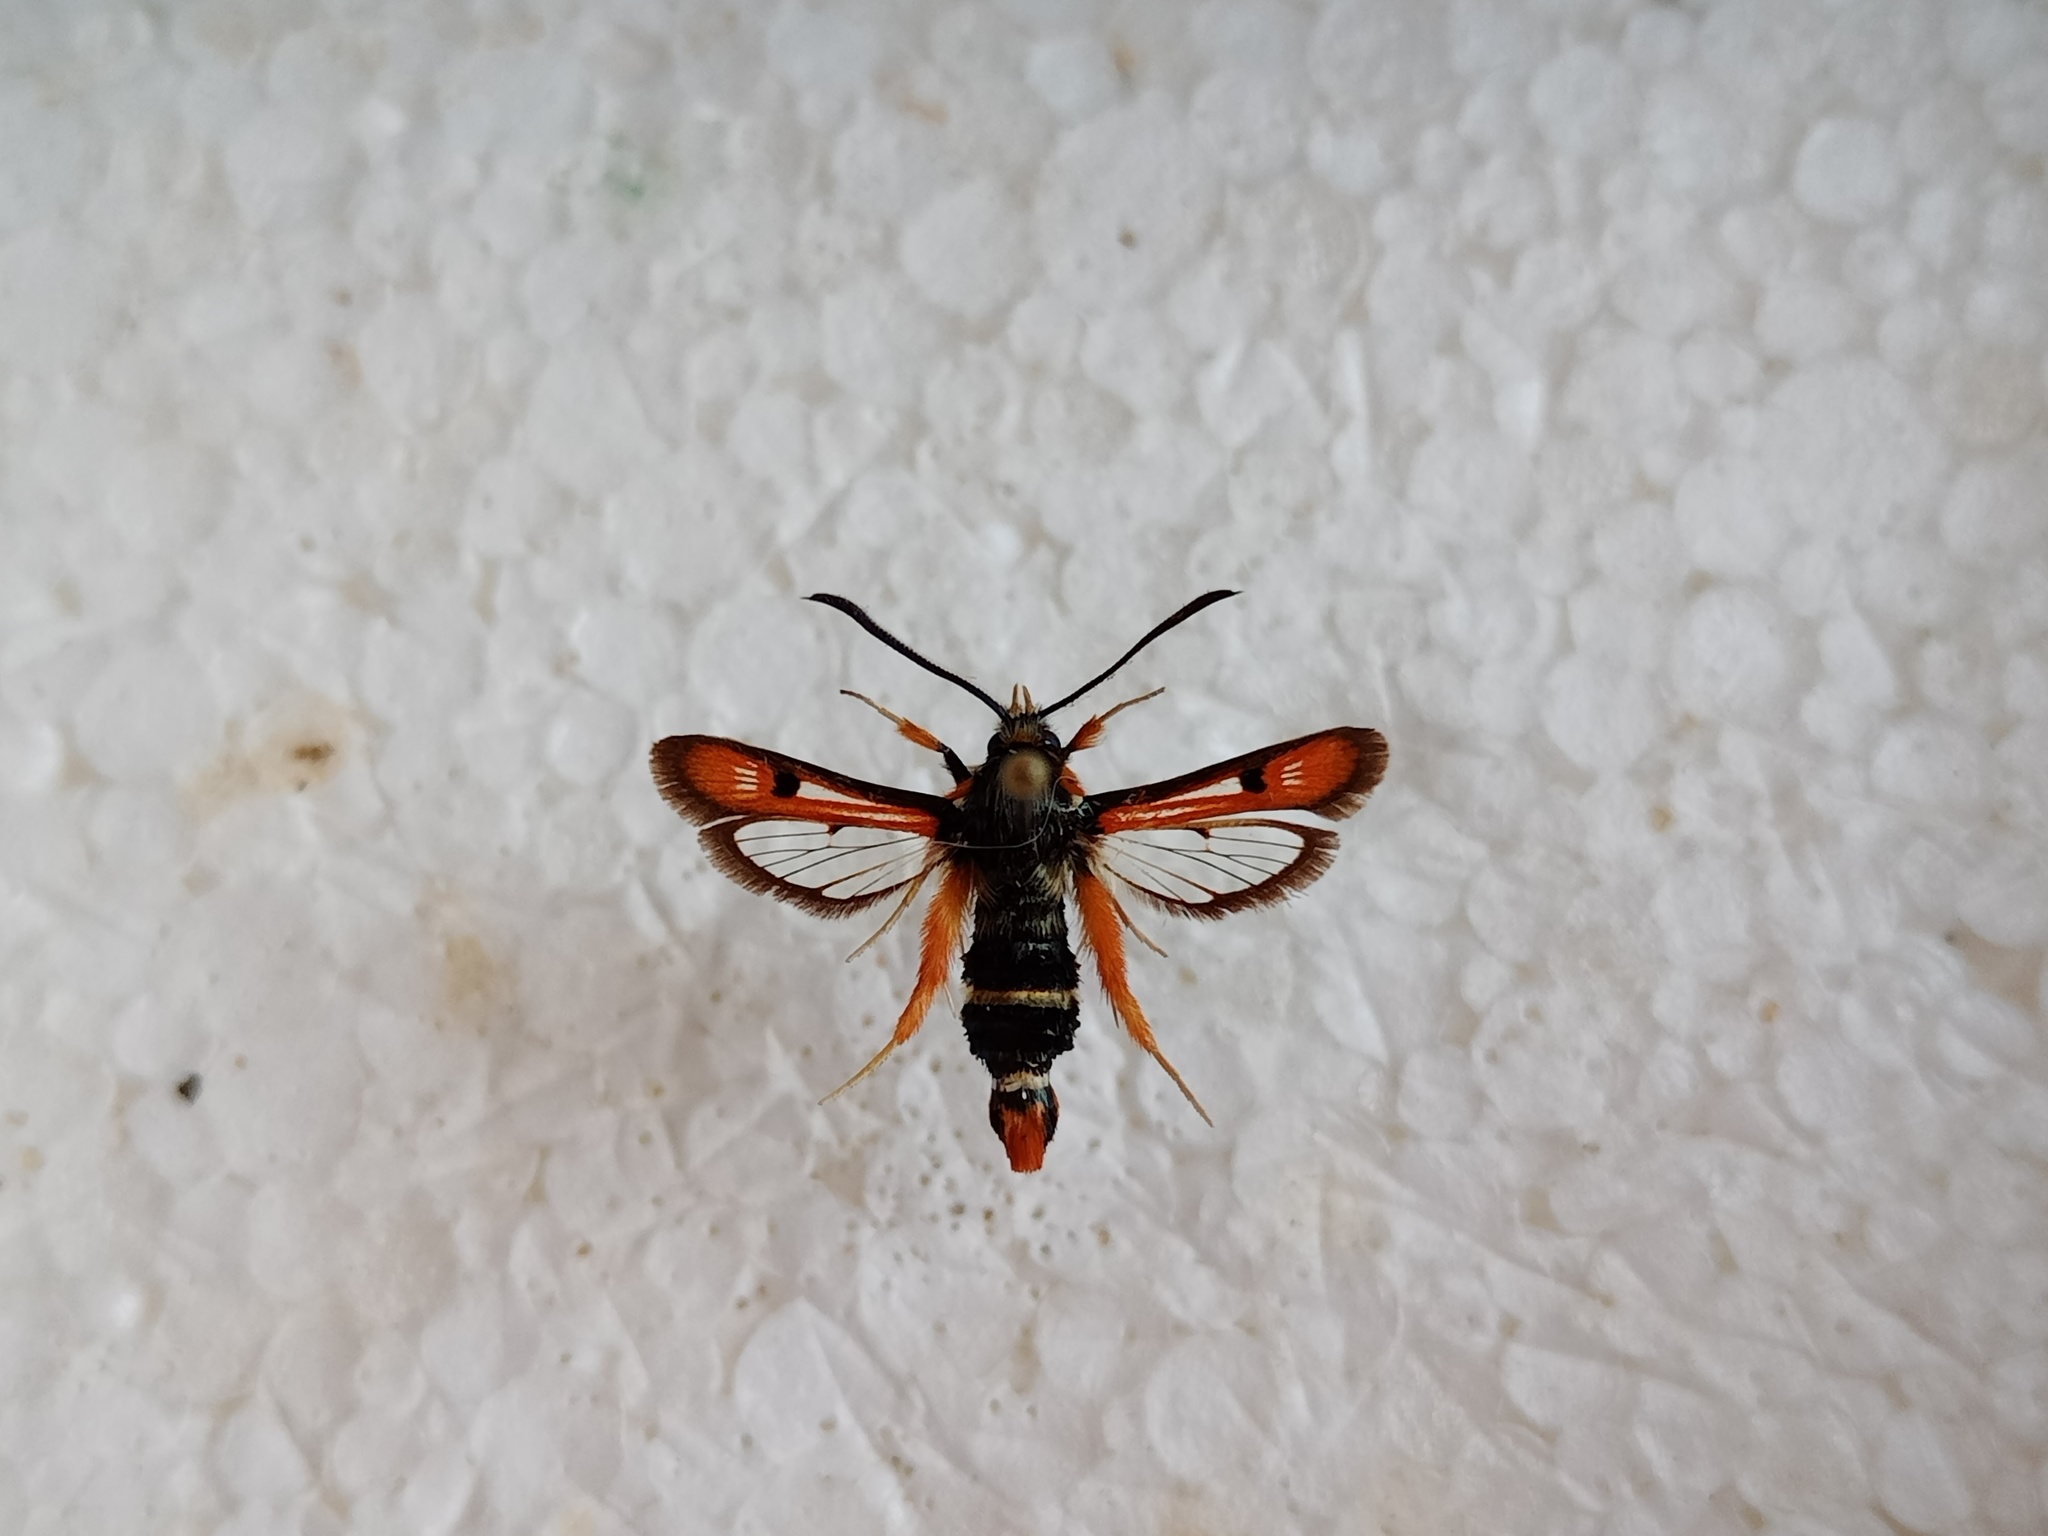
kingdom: Animalia
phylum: Arthropoda
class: Insecta
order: Lepidoptera
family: Sesiidae
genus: Pyropteron
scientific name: Pyropteron chrysidiforme
